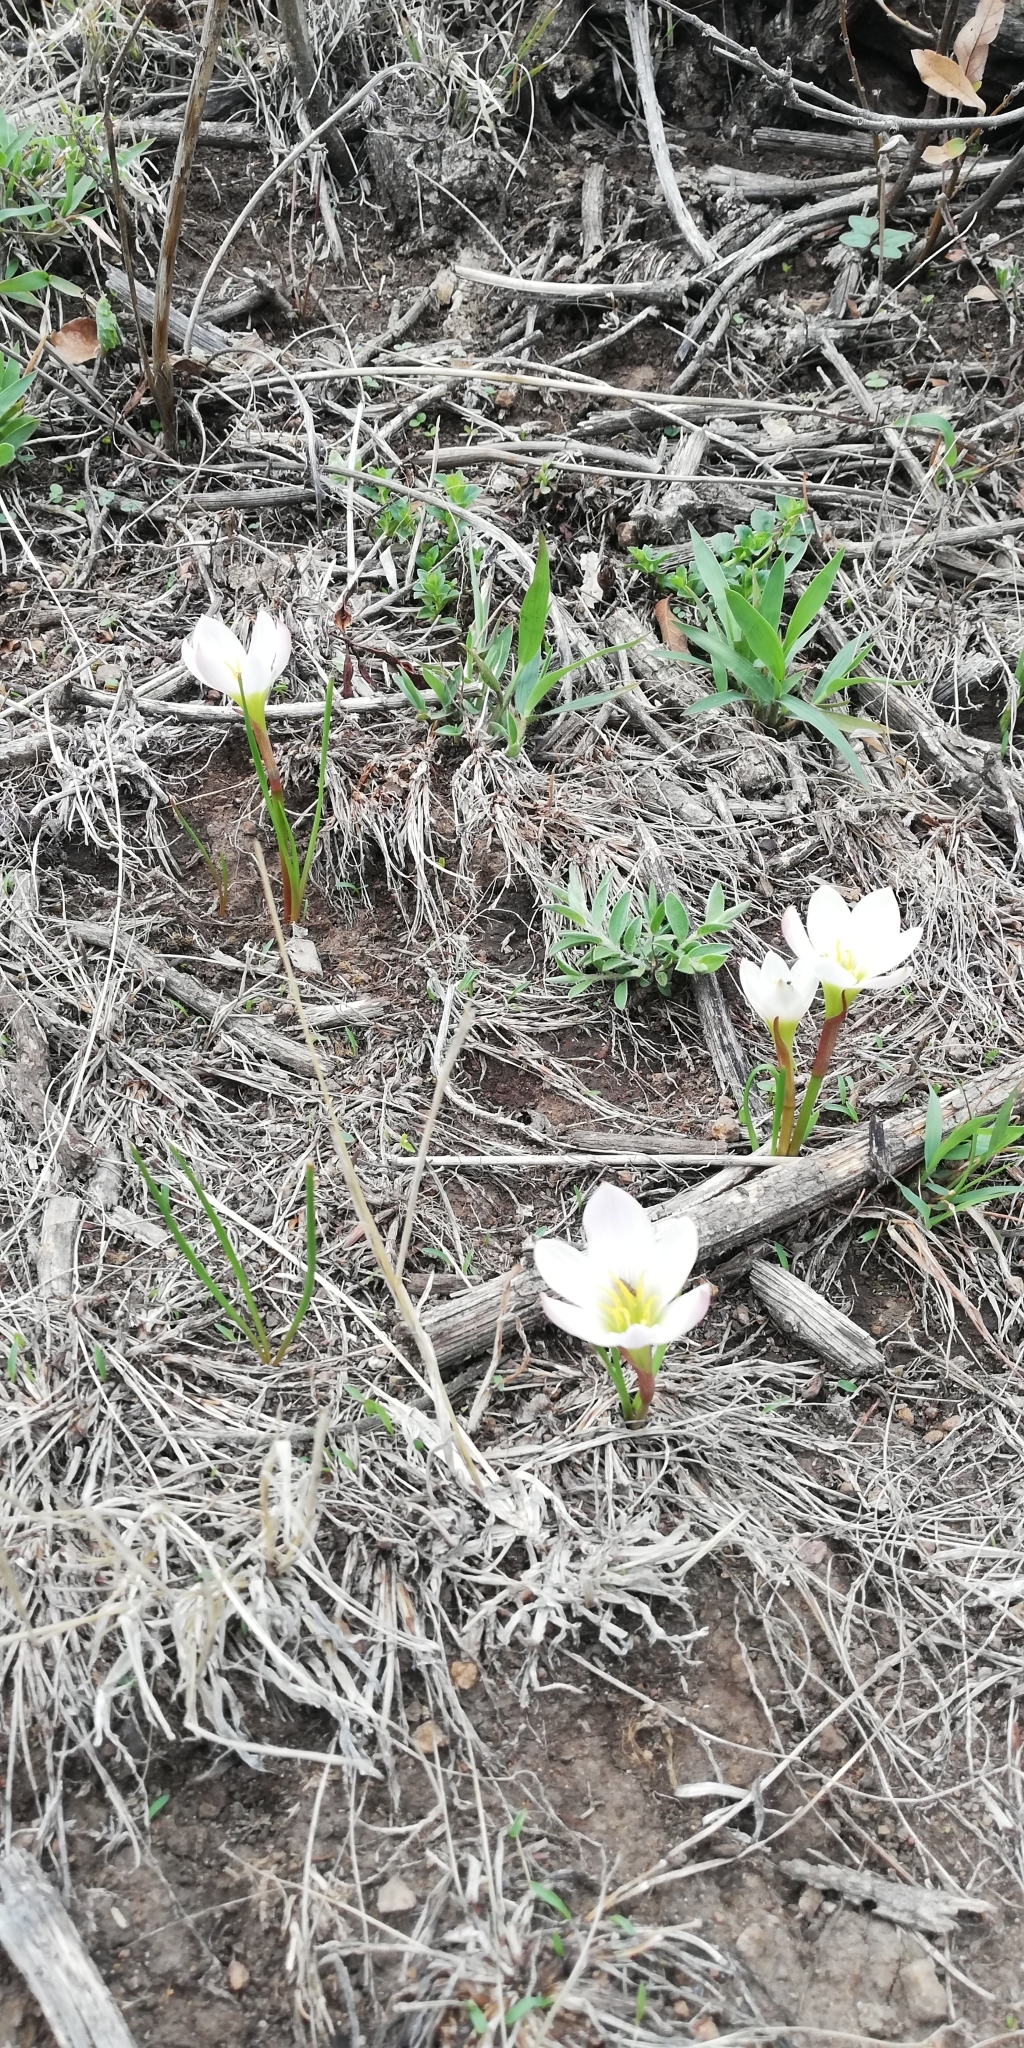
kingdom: Plantae
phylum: Tracheophyta
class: Liliopsida
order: Asparagales
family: Amaryllidaceae
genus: Zephyranthes
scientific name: Zephyranthes fosteri
